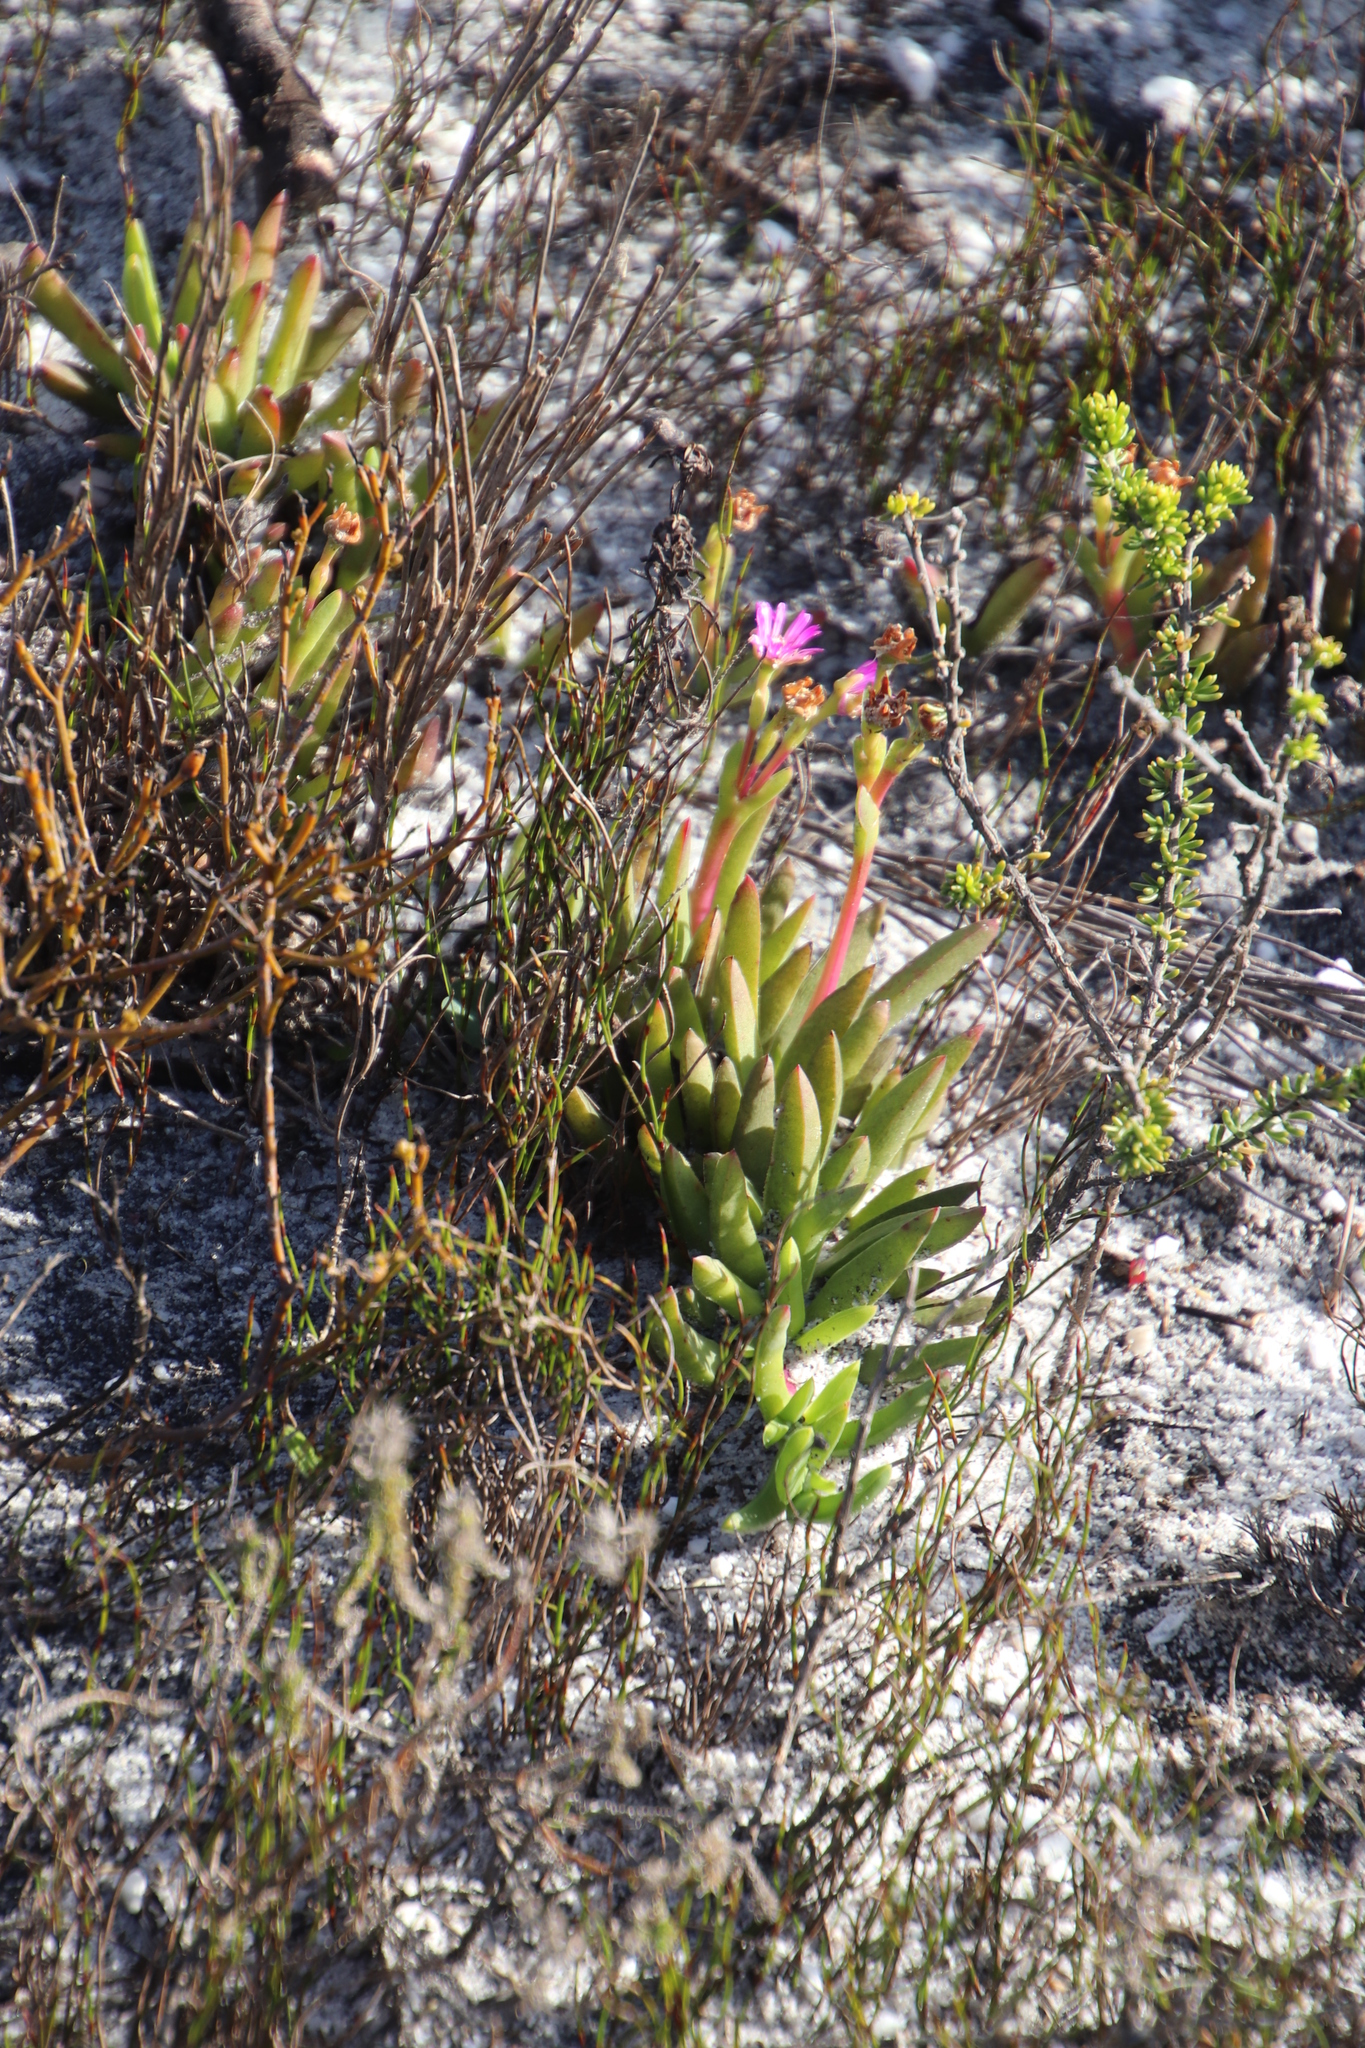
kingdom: Plantae
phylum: Tracheophyta
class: Magnoliopsida
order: Caryophyllales
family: Aizoaceae
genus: Ruschia
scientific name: Ruschia sarmentosa
